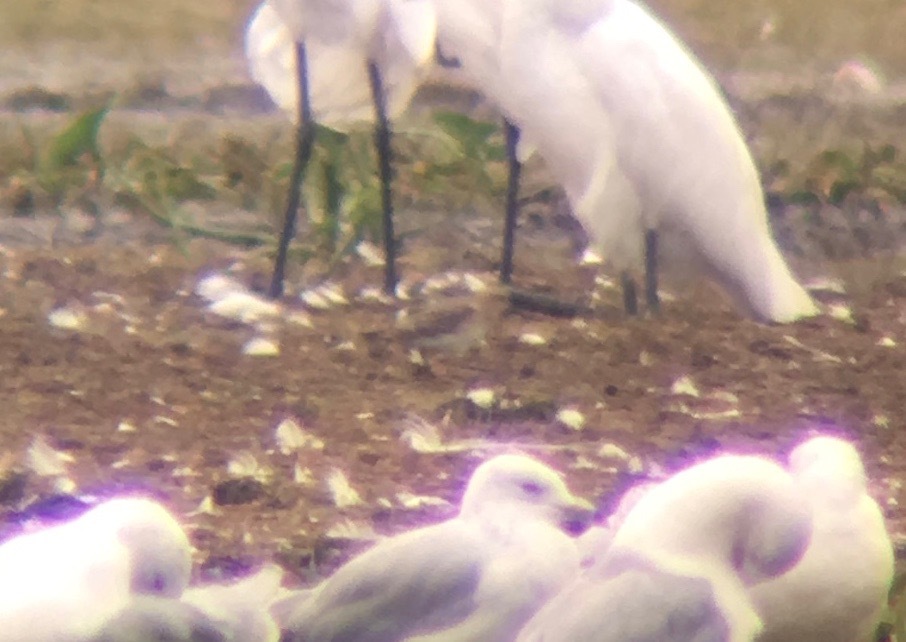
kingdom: Animalia
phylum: Chordata
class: Aves
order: Charadriiformes
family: Scolopacidae
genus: Calidris
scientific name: Calidris bairdii
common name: Baird's sandpiper
